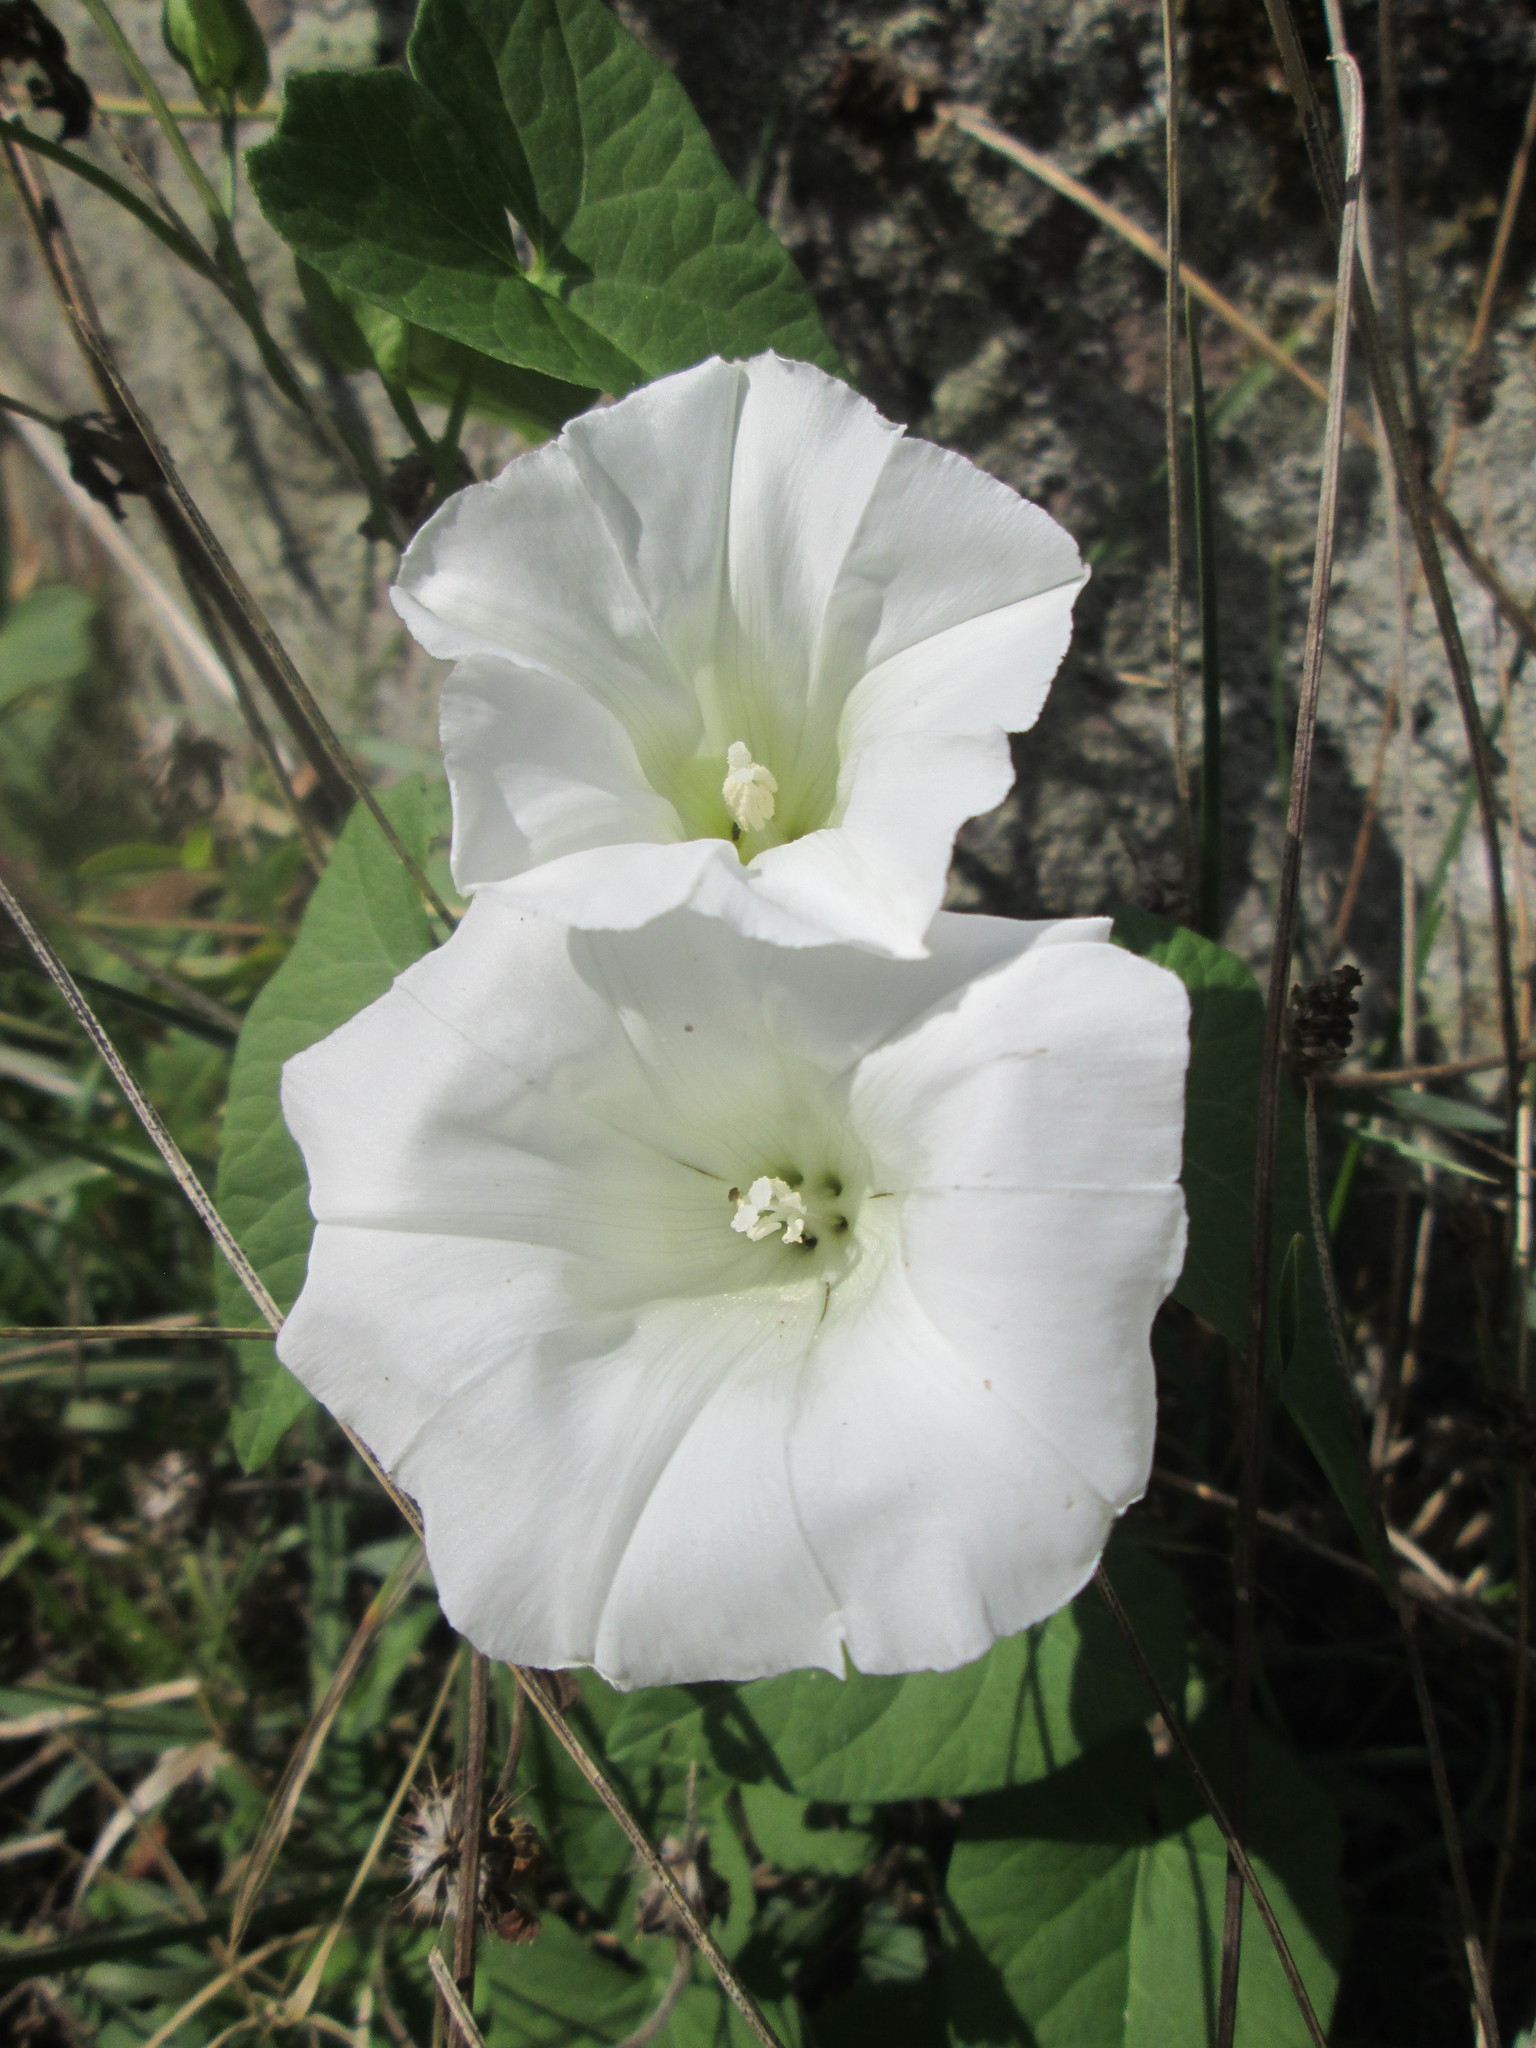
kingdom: Plantae
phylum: Tracheophyta
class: Magnoliopsida
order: Solanales
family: Convolvulaceae
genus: Calystegia
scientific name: Calystegia sepium
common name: Hedge bindweed
